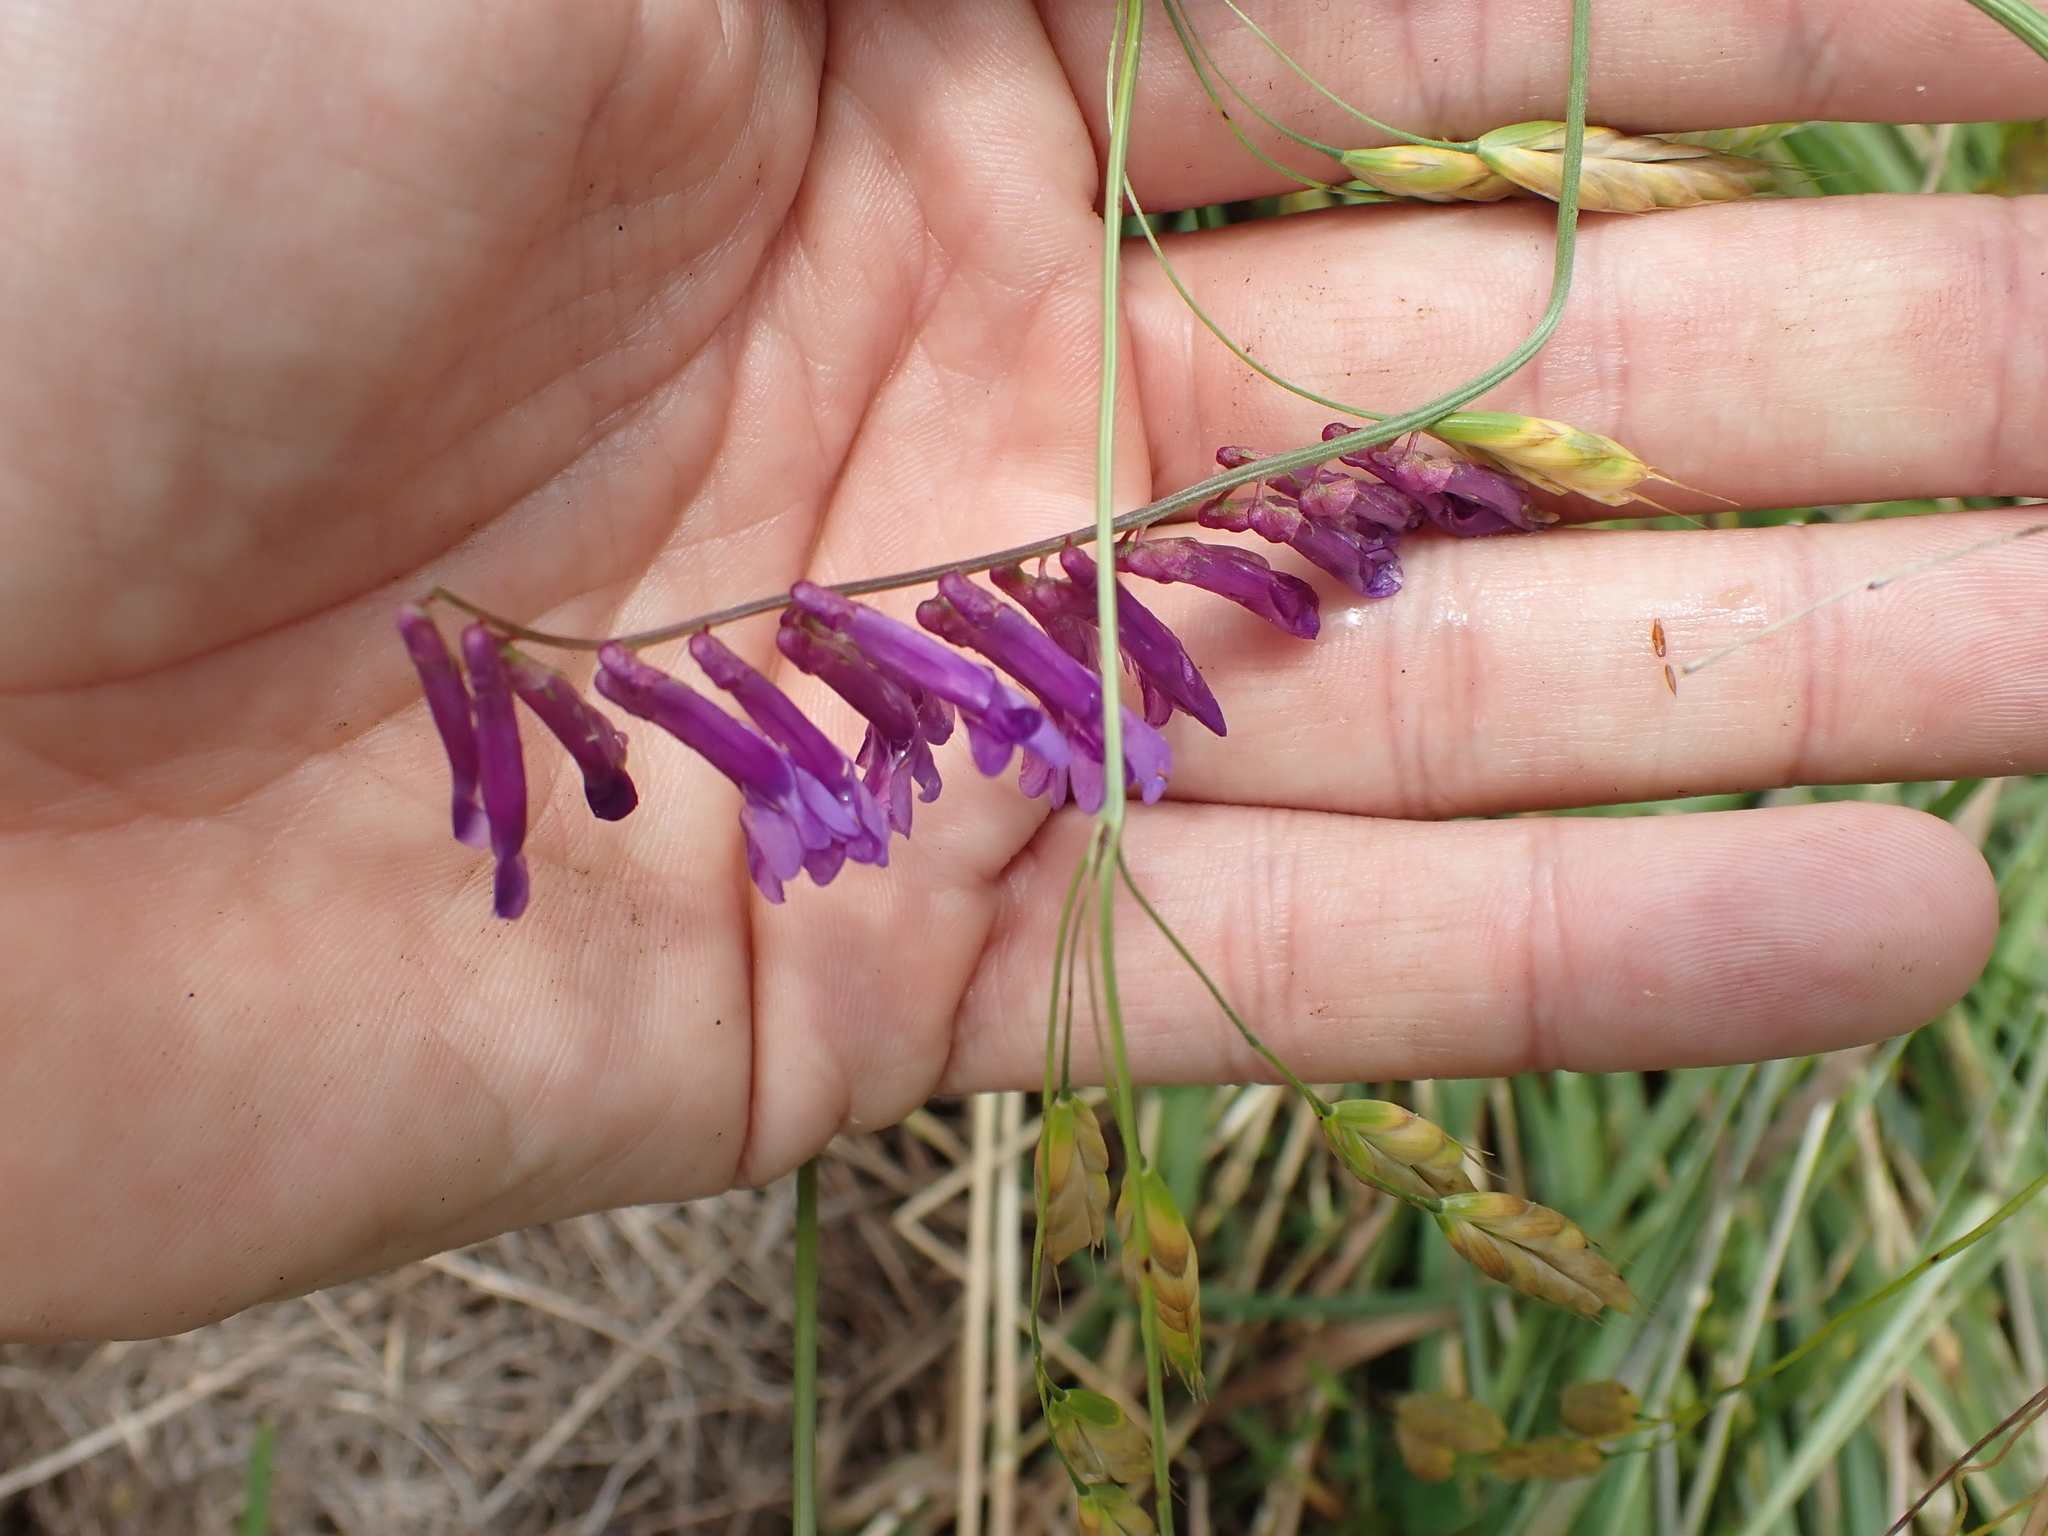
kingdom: Plantae
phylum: Tracheophyta
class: Magnoliopsida
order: Fabales
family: Fabaceae
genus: Vicia
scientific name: Vicia villosa
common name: Fodder vetch
